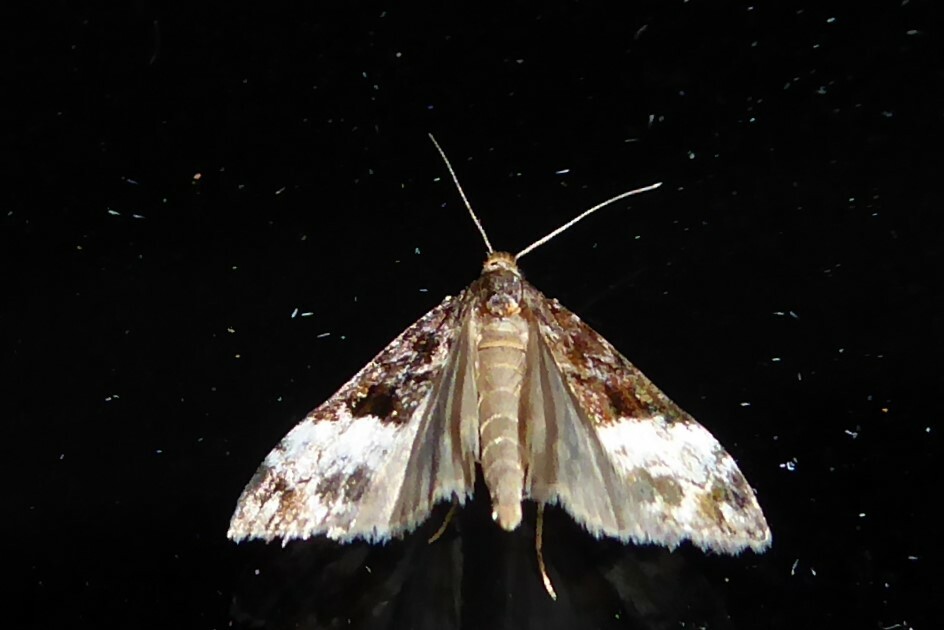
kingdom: Animalia
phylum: Arthropoda
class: Insecta
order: Lepidoptera
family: Crambidae
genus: Scoparia
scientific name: Scoparia minusculalis
